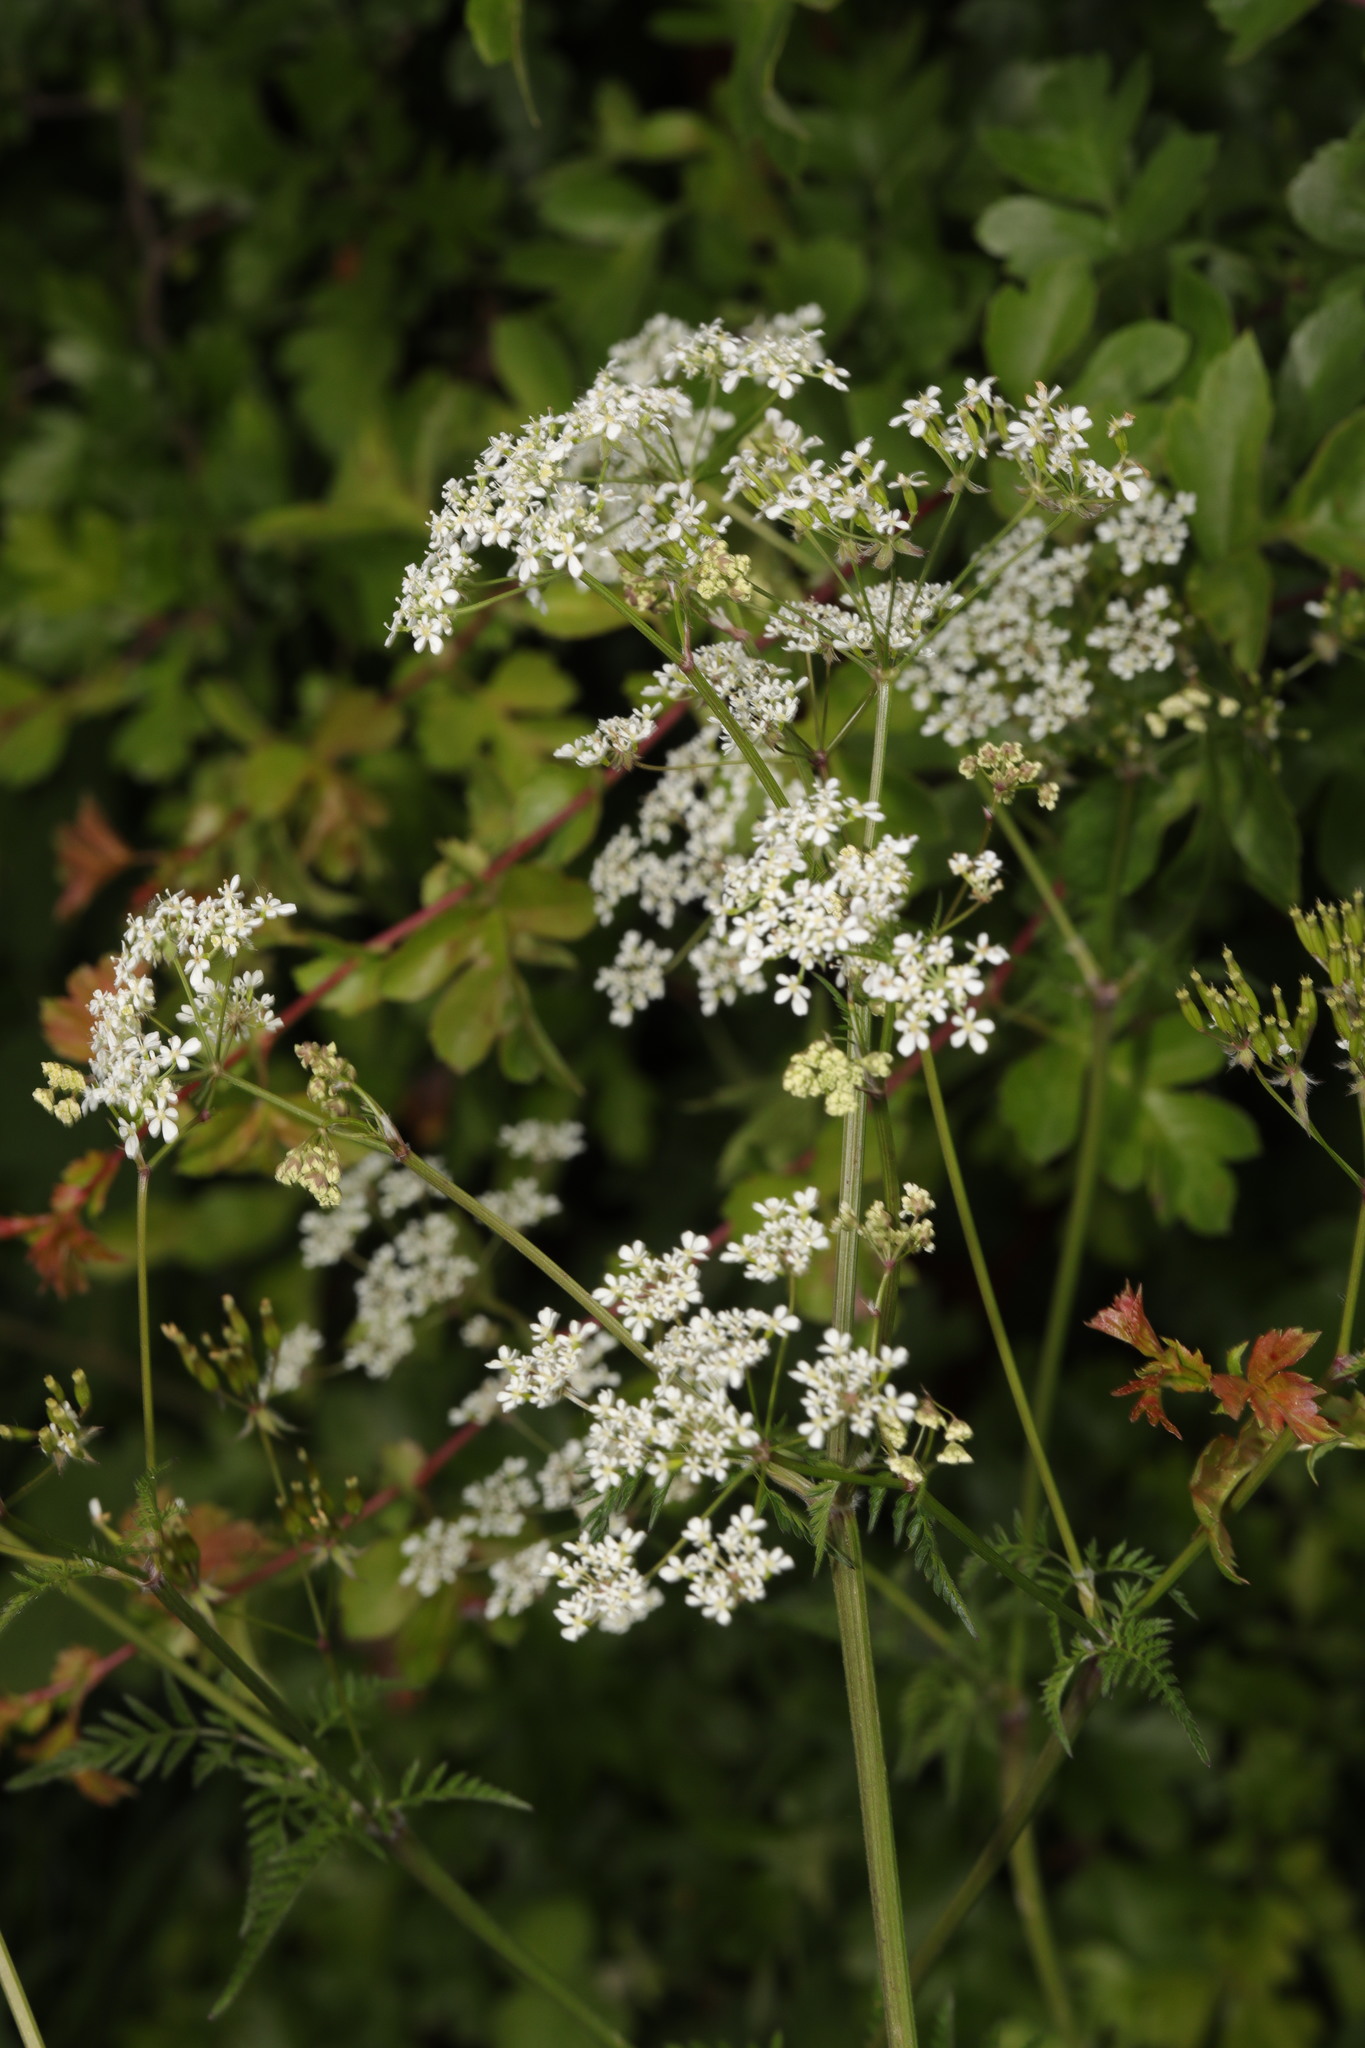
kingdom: Plantae
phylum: Tracheophyta
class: Magnoliopsida
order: Apiales
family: Apiaceae
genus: Anthriscus
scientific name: Anthriscus sylvestris
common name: Cow parsley
